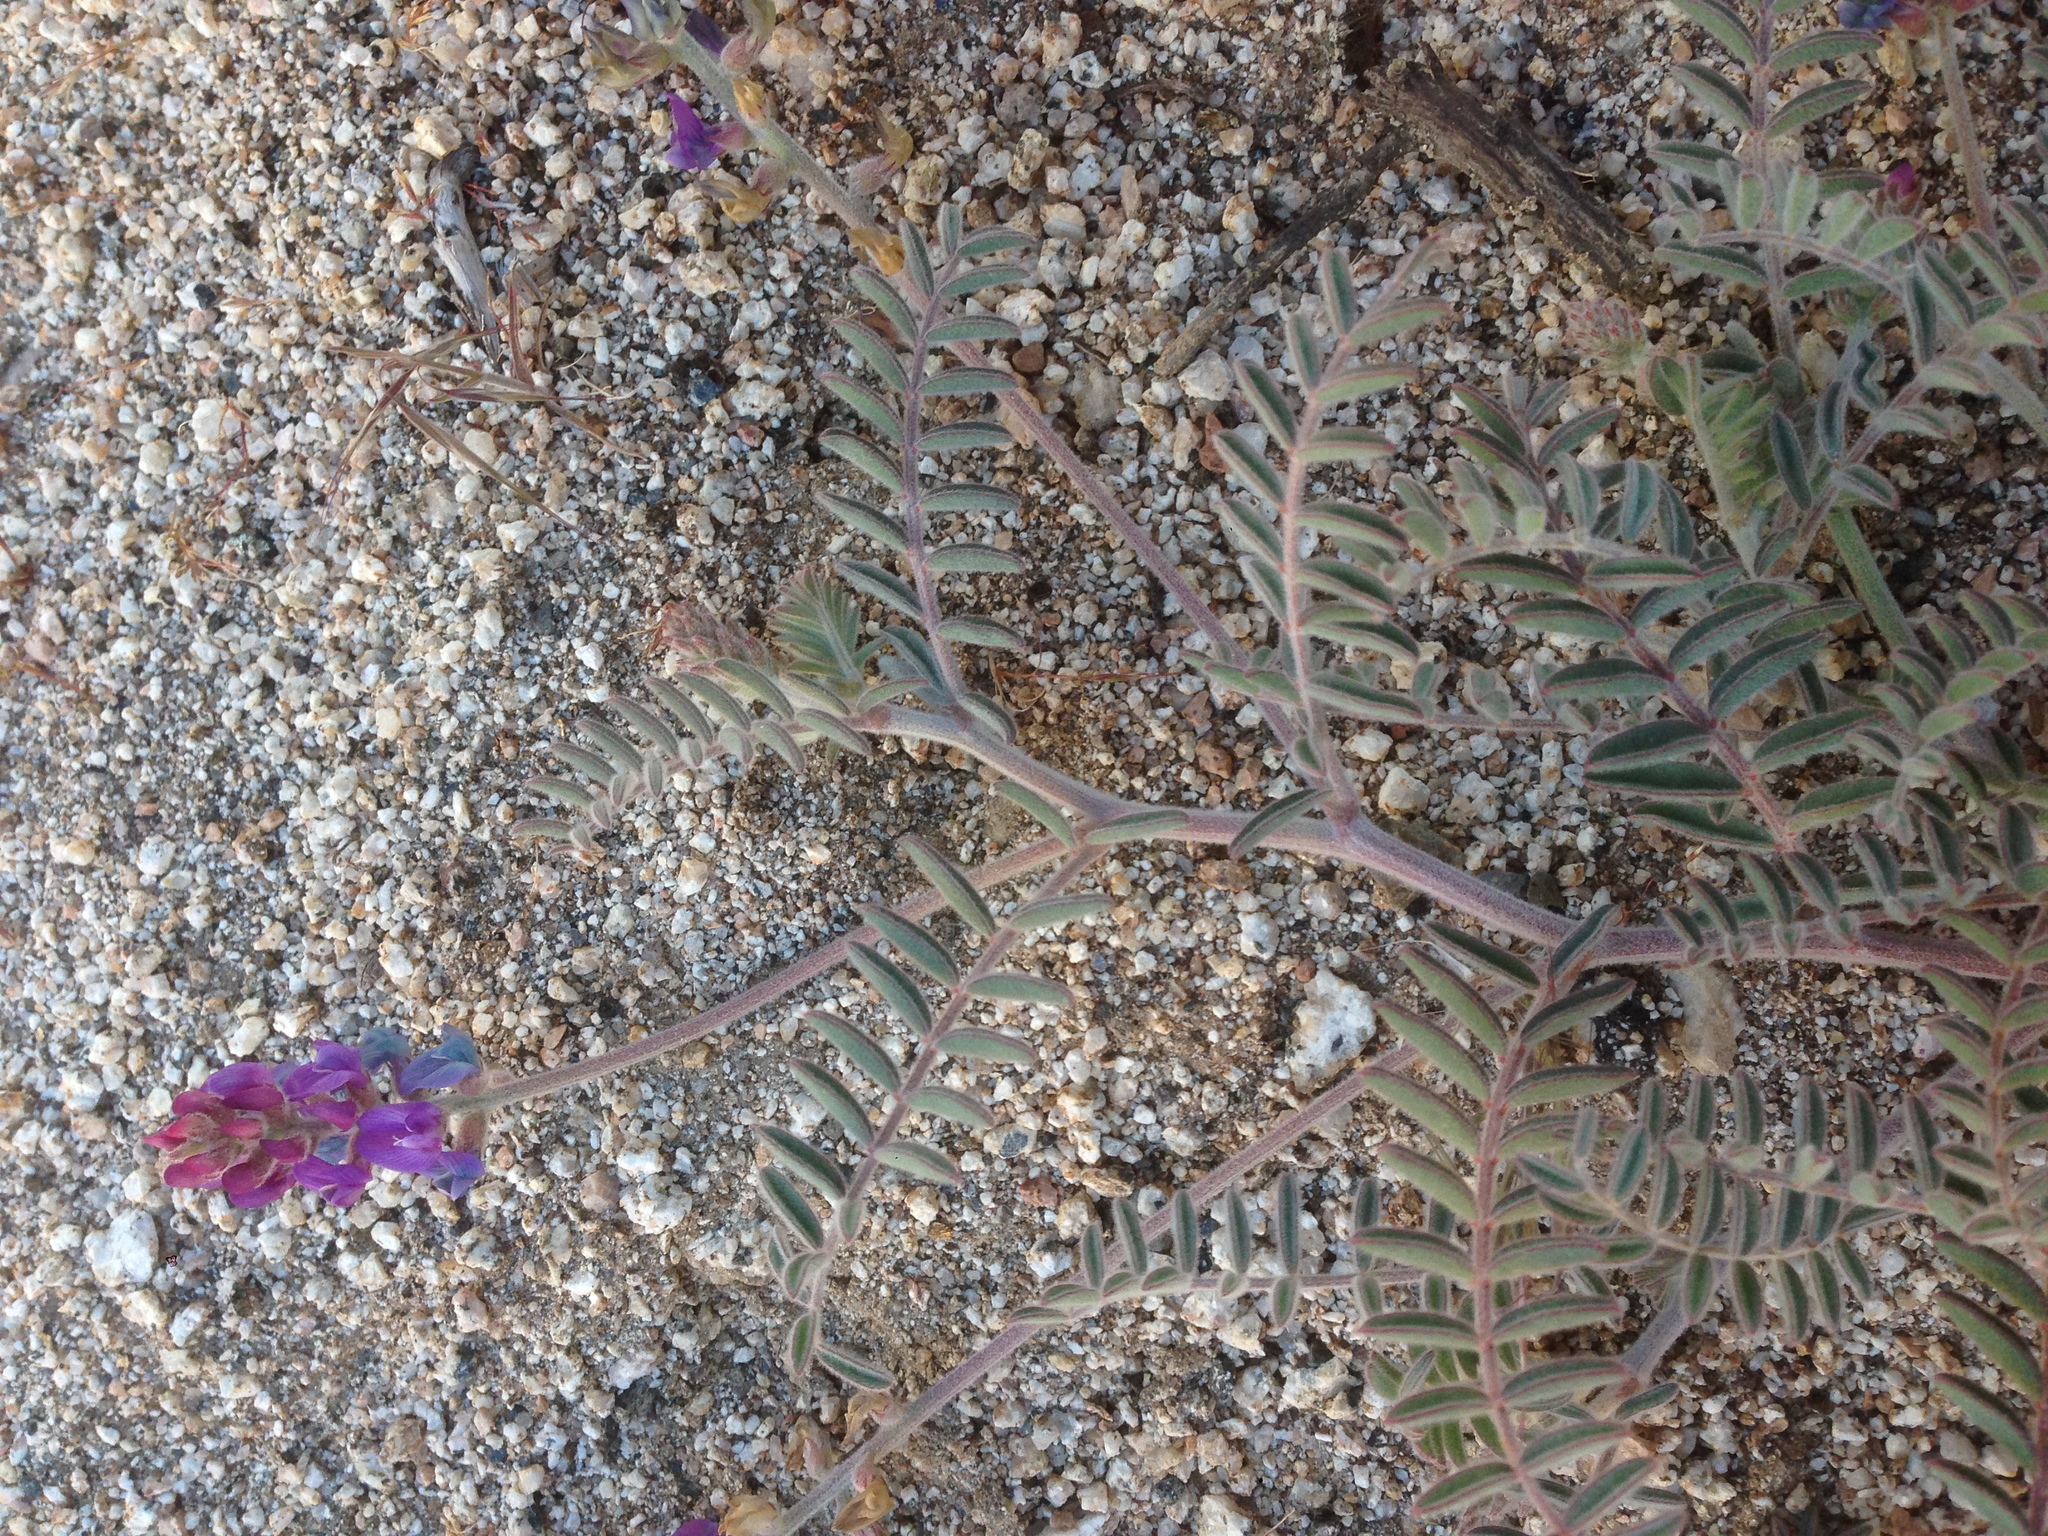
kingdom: Plantae
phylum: Tracheophyta
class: Magnoliopsida
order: Fabales
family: Fabaceae
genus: Astragalus
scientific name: Astragalus prorifer
